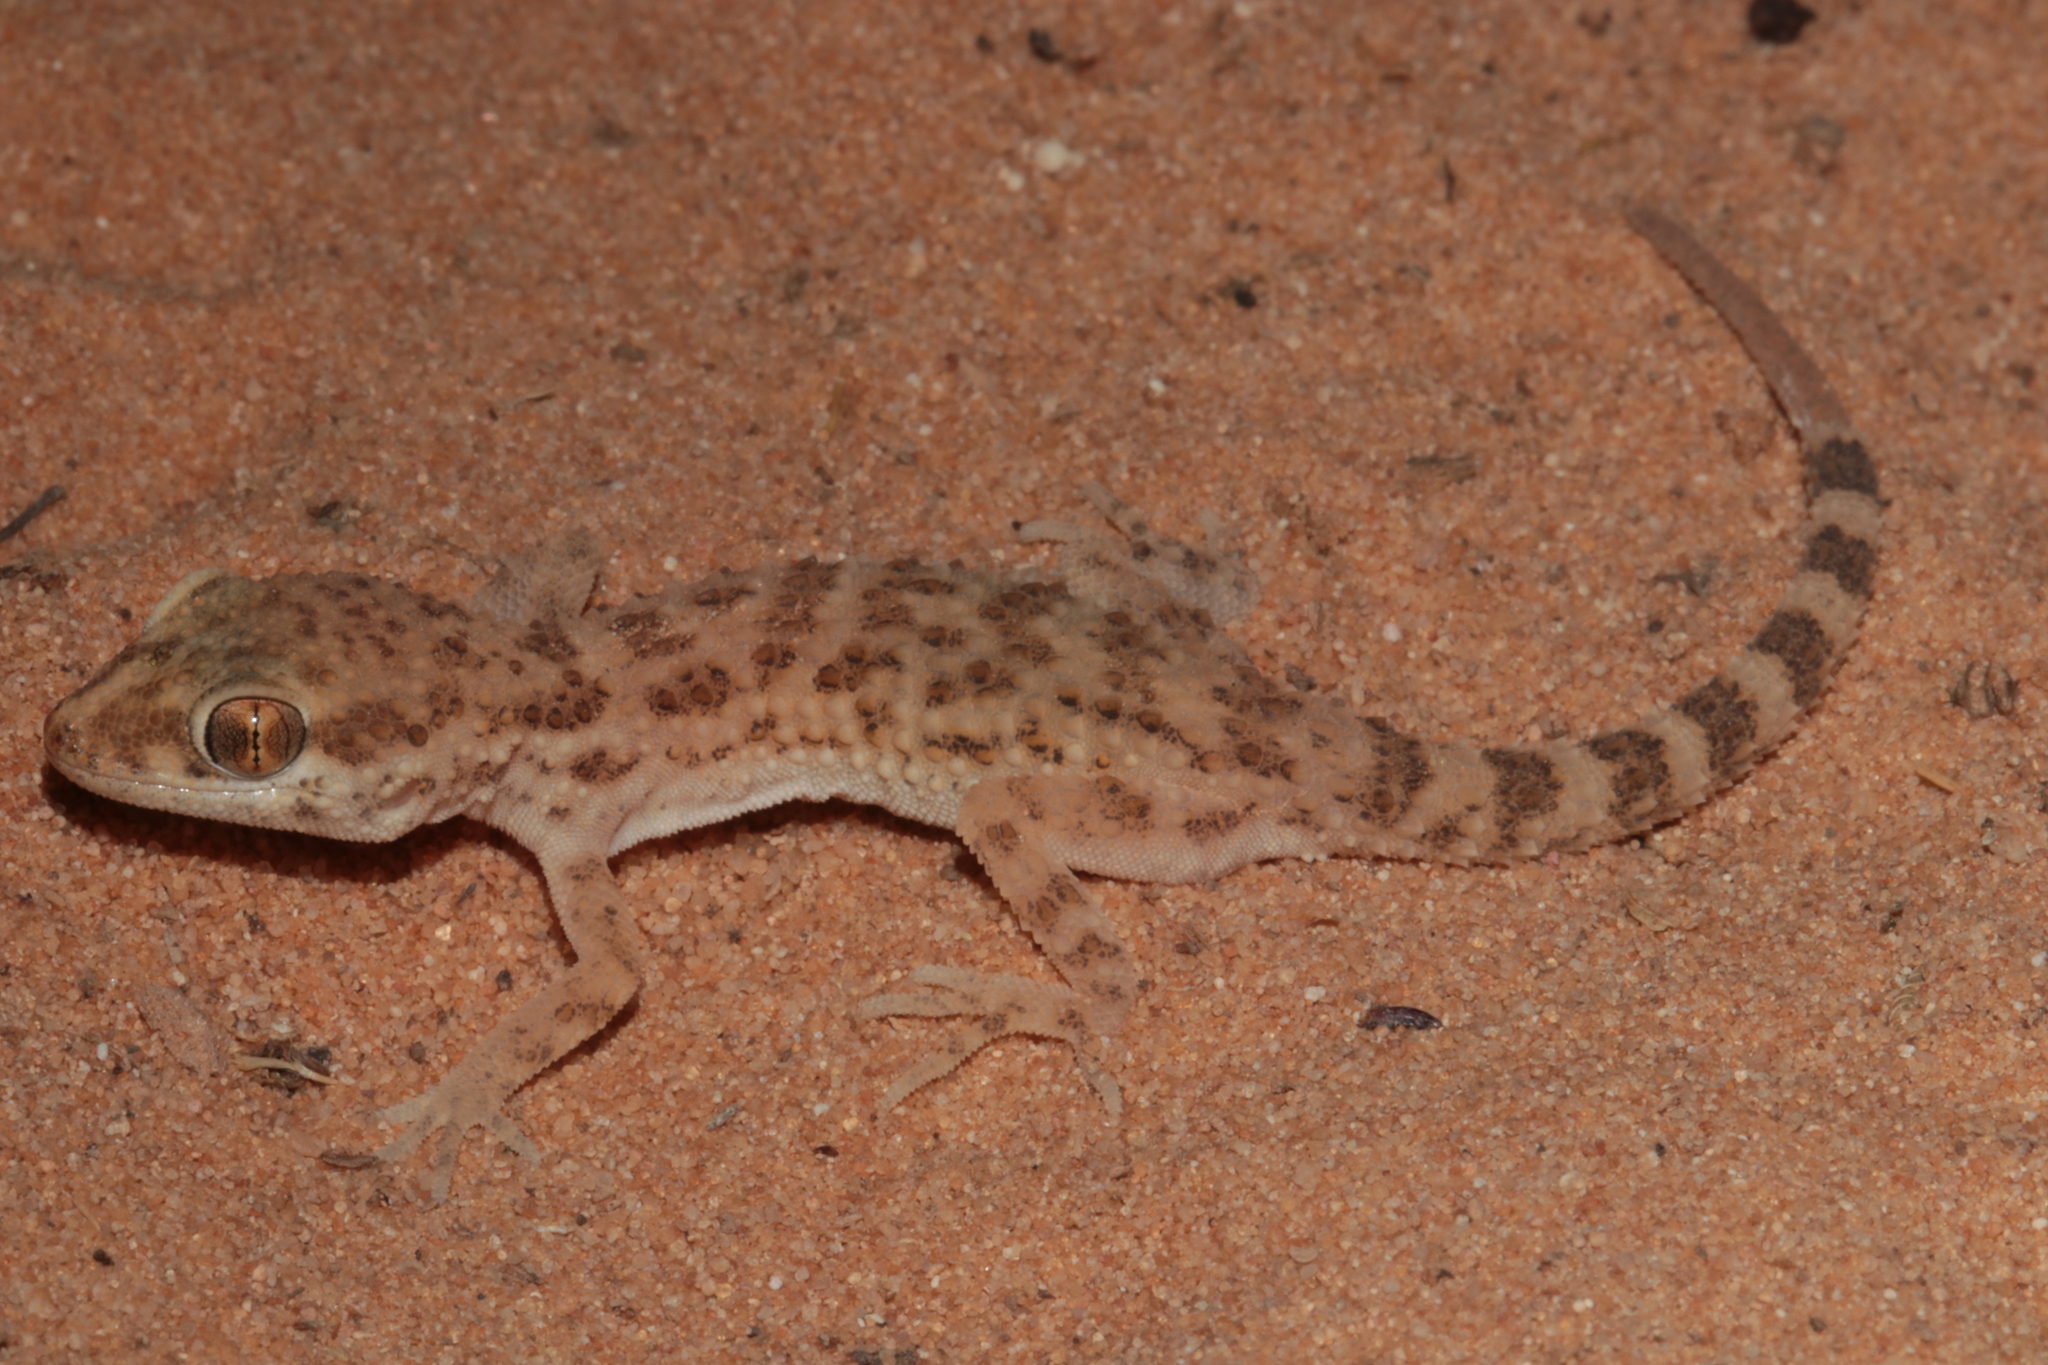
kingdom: Animalia
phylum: Chordata
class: Squamata
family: Gekkonidae
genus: Bunopus
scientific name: Bunopus tuberculatus
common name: Southern tuberculated gecko
